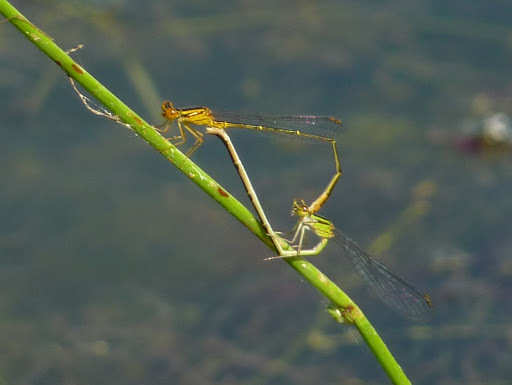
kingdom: Animalia
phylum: Arthropoda
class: Insecta
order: Odonata
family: Coenagrionidae
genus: Enallagma
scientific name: Enallagma signatum
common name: Orange bluet
